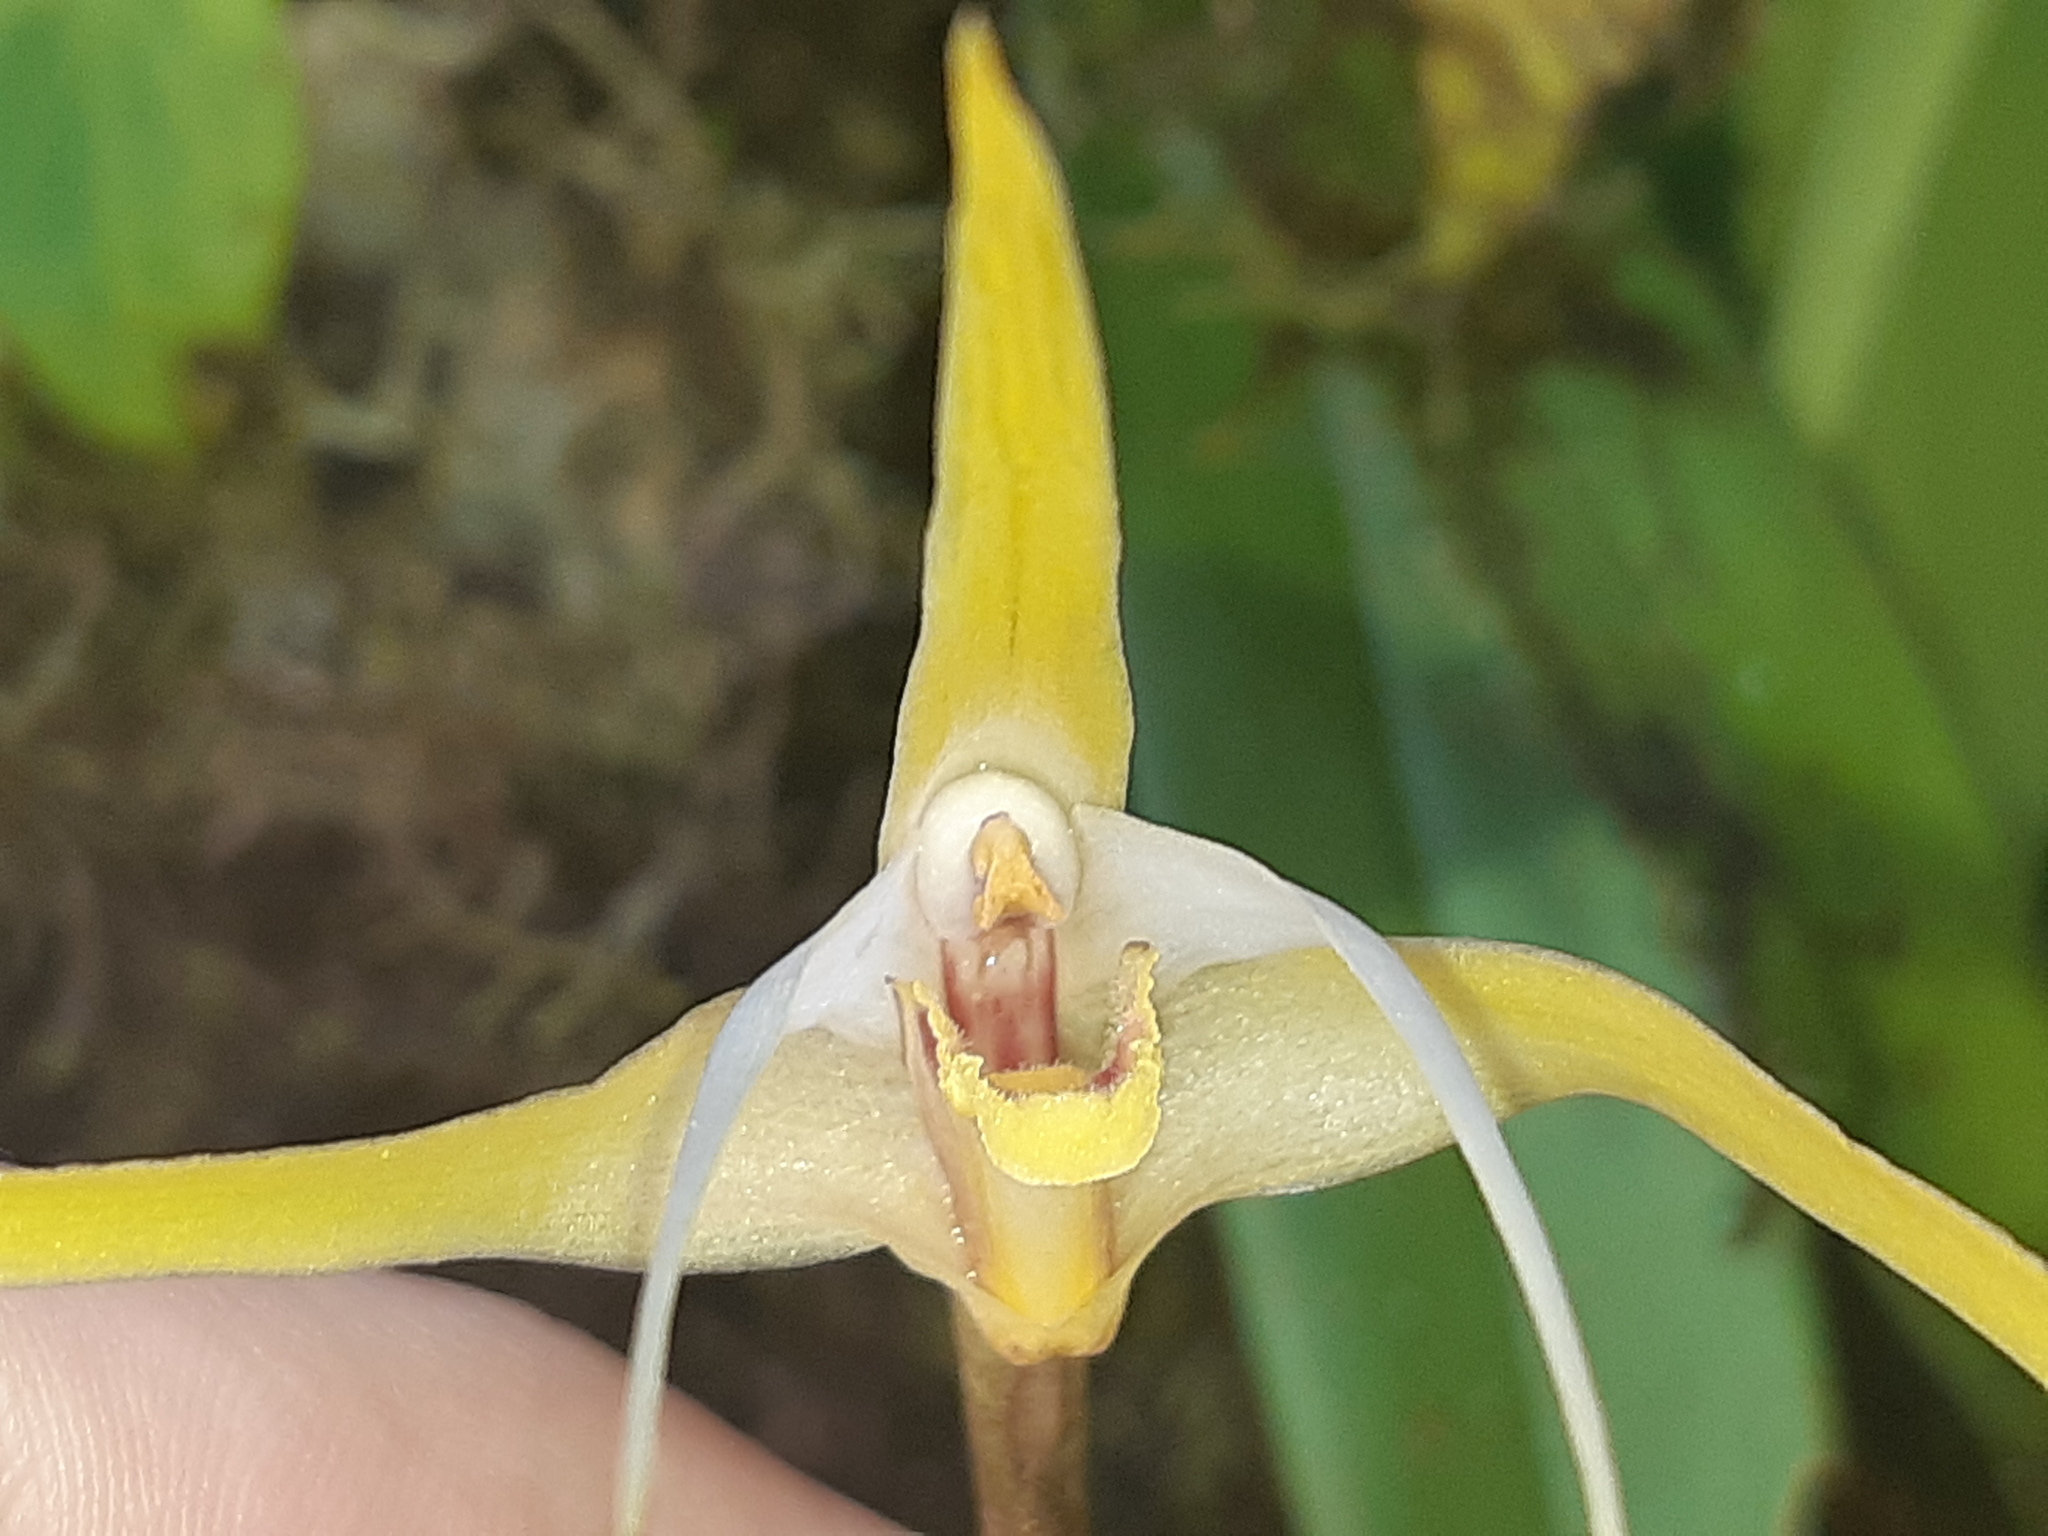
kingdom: Plantae
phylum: Tracheophyta
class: Liliopsida
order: Asparagales
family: Orchidaceae
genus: Maxillaria
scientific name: Maxillaria bradei
